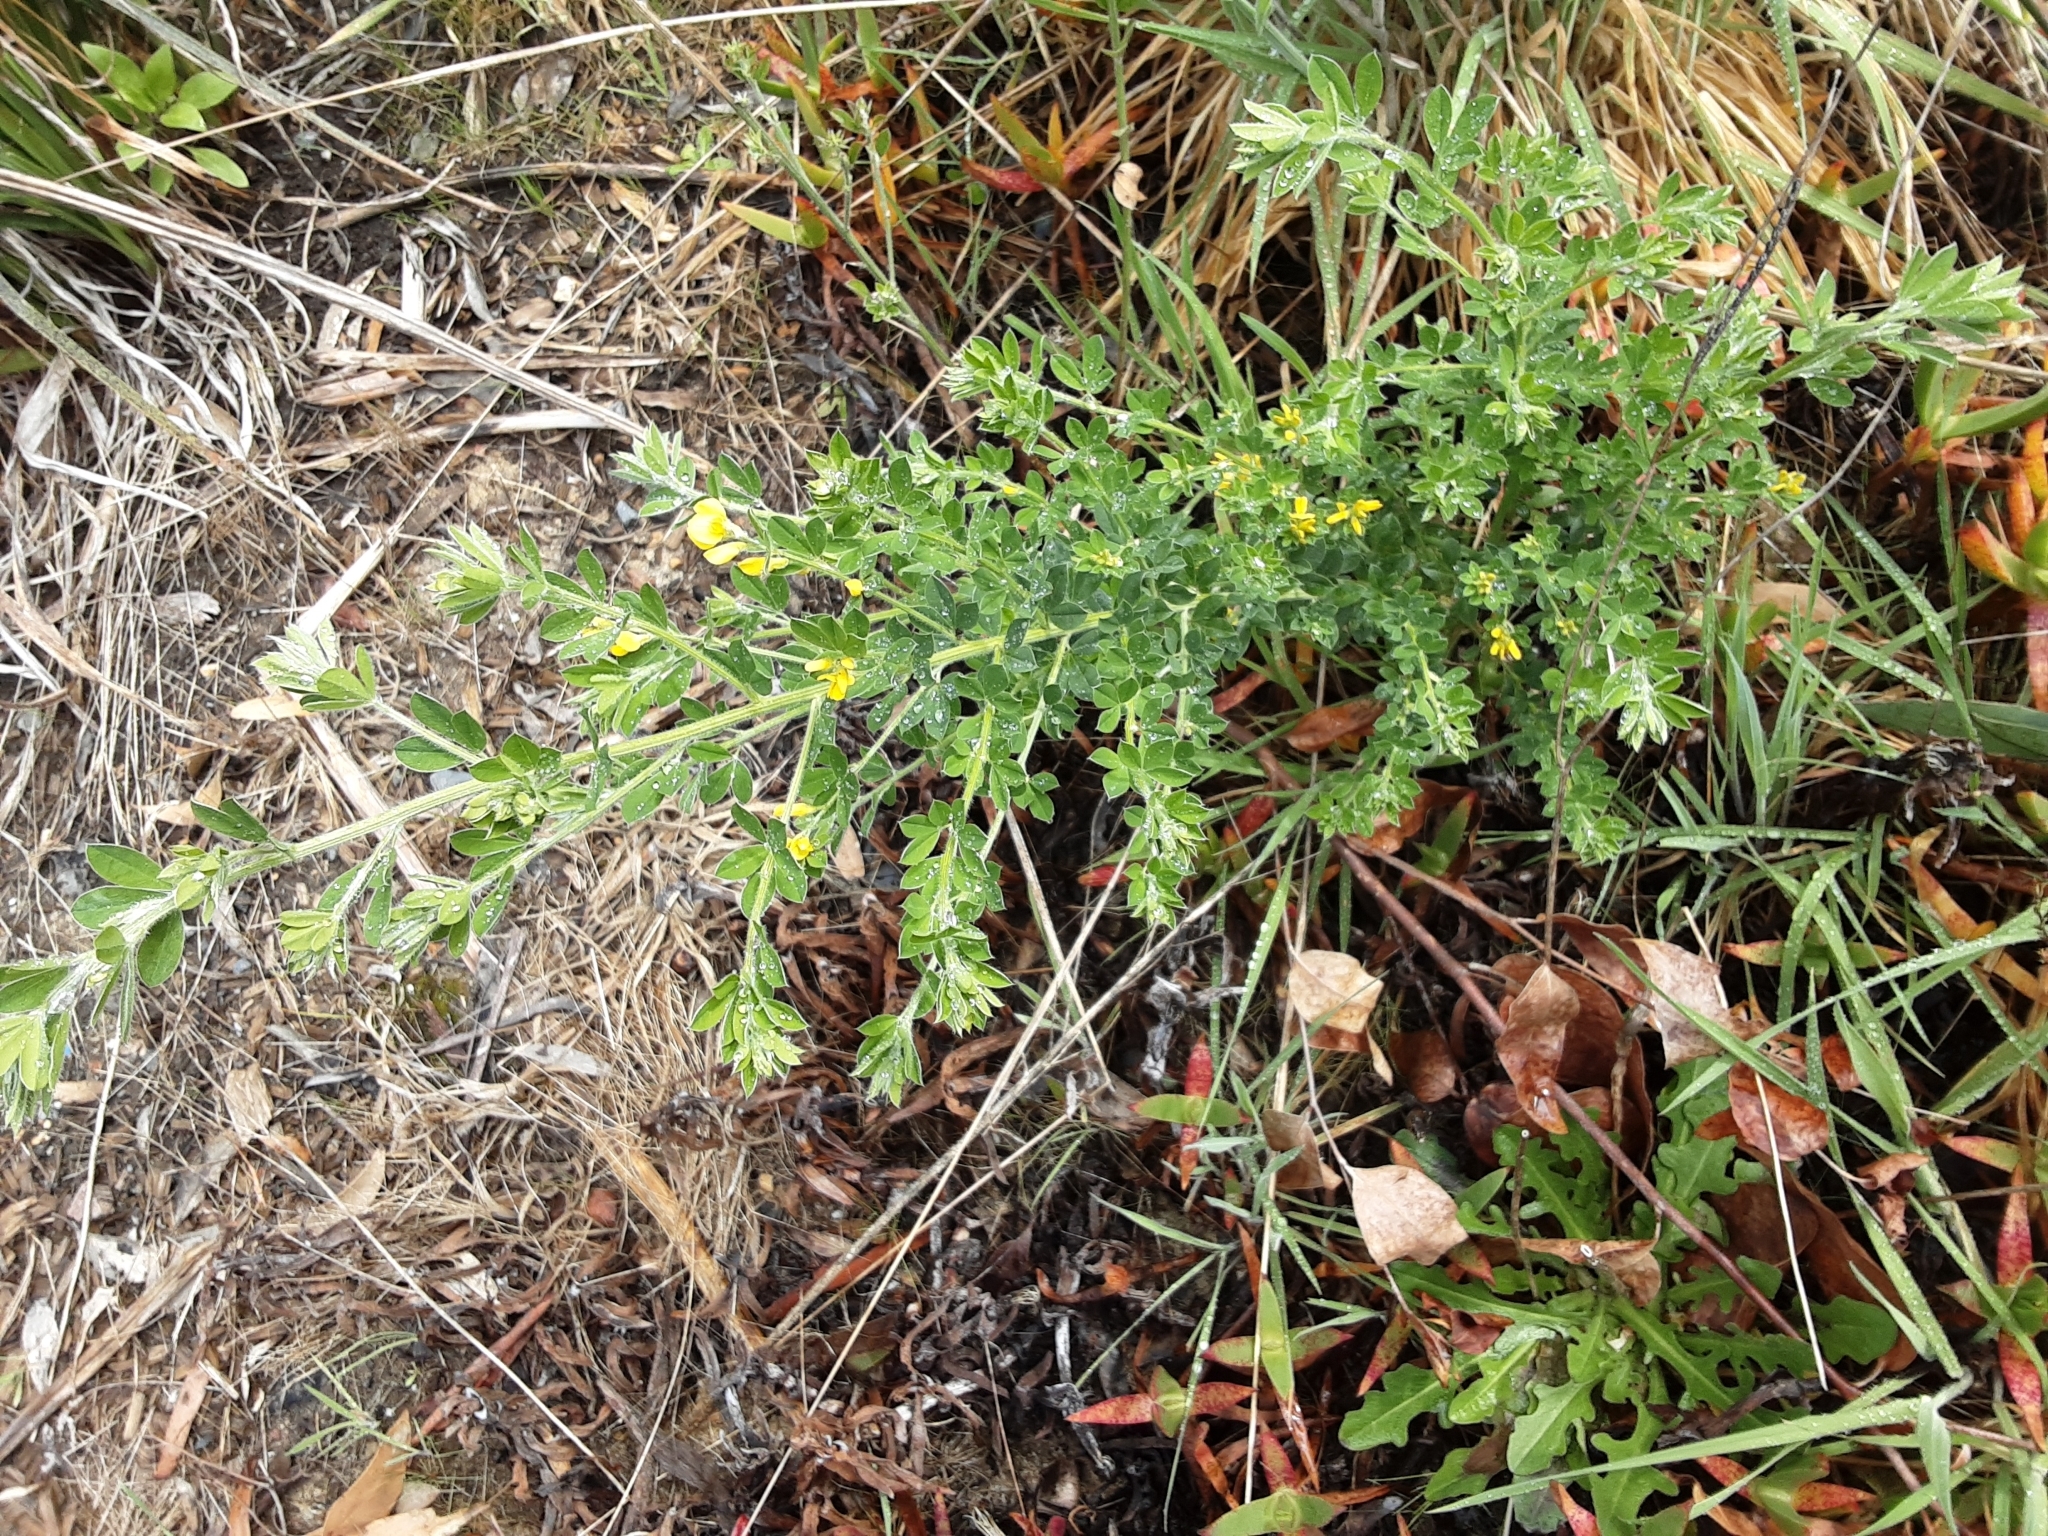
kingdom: Plantae
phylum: Tracheophyta
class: Magnoliopsida
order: Fabales
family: Fabaceae
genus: Genista
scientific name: Genista monspessulana
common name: Montpellier broom
